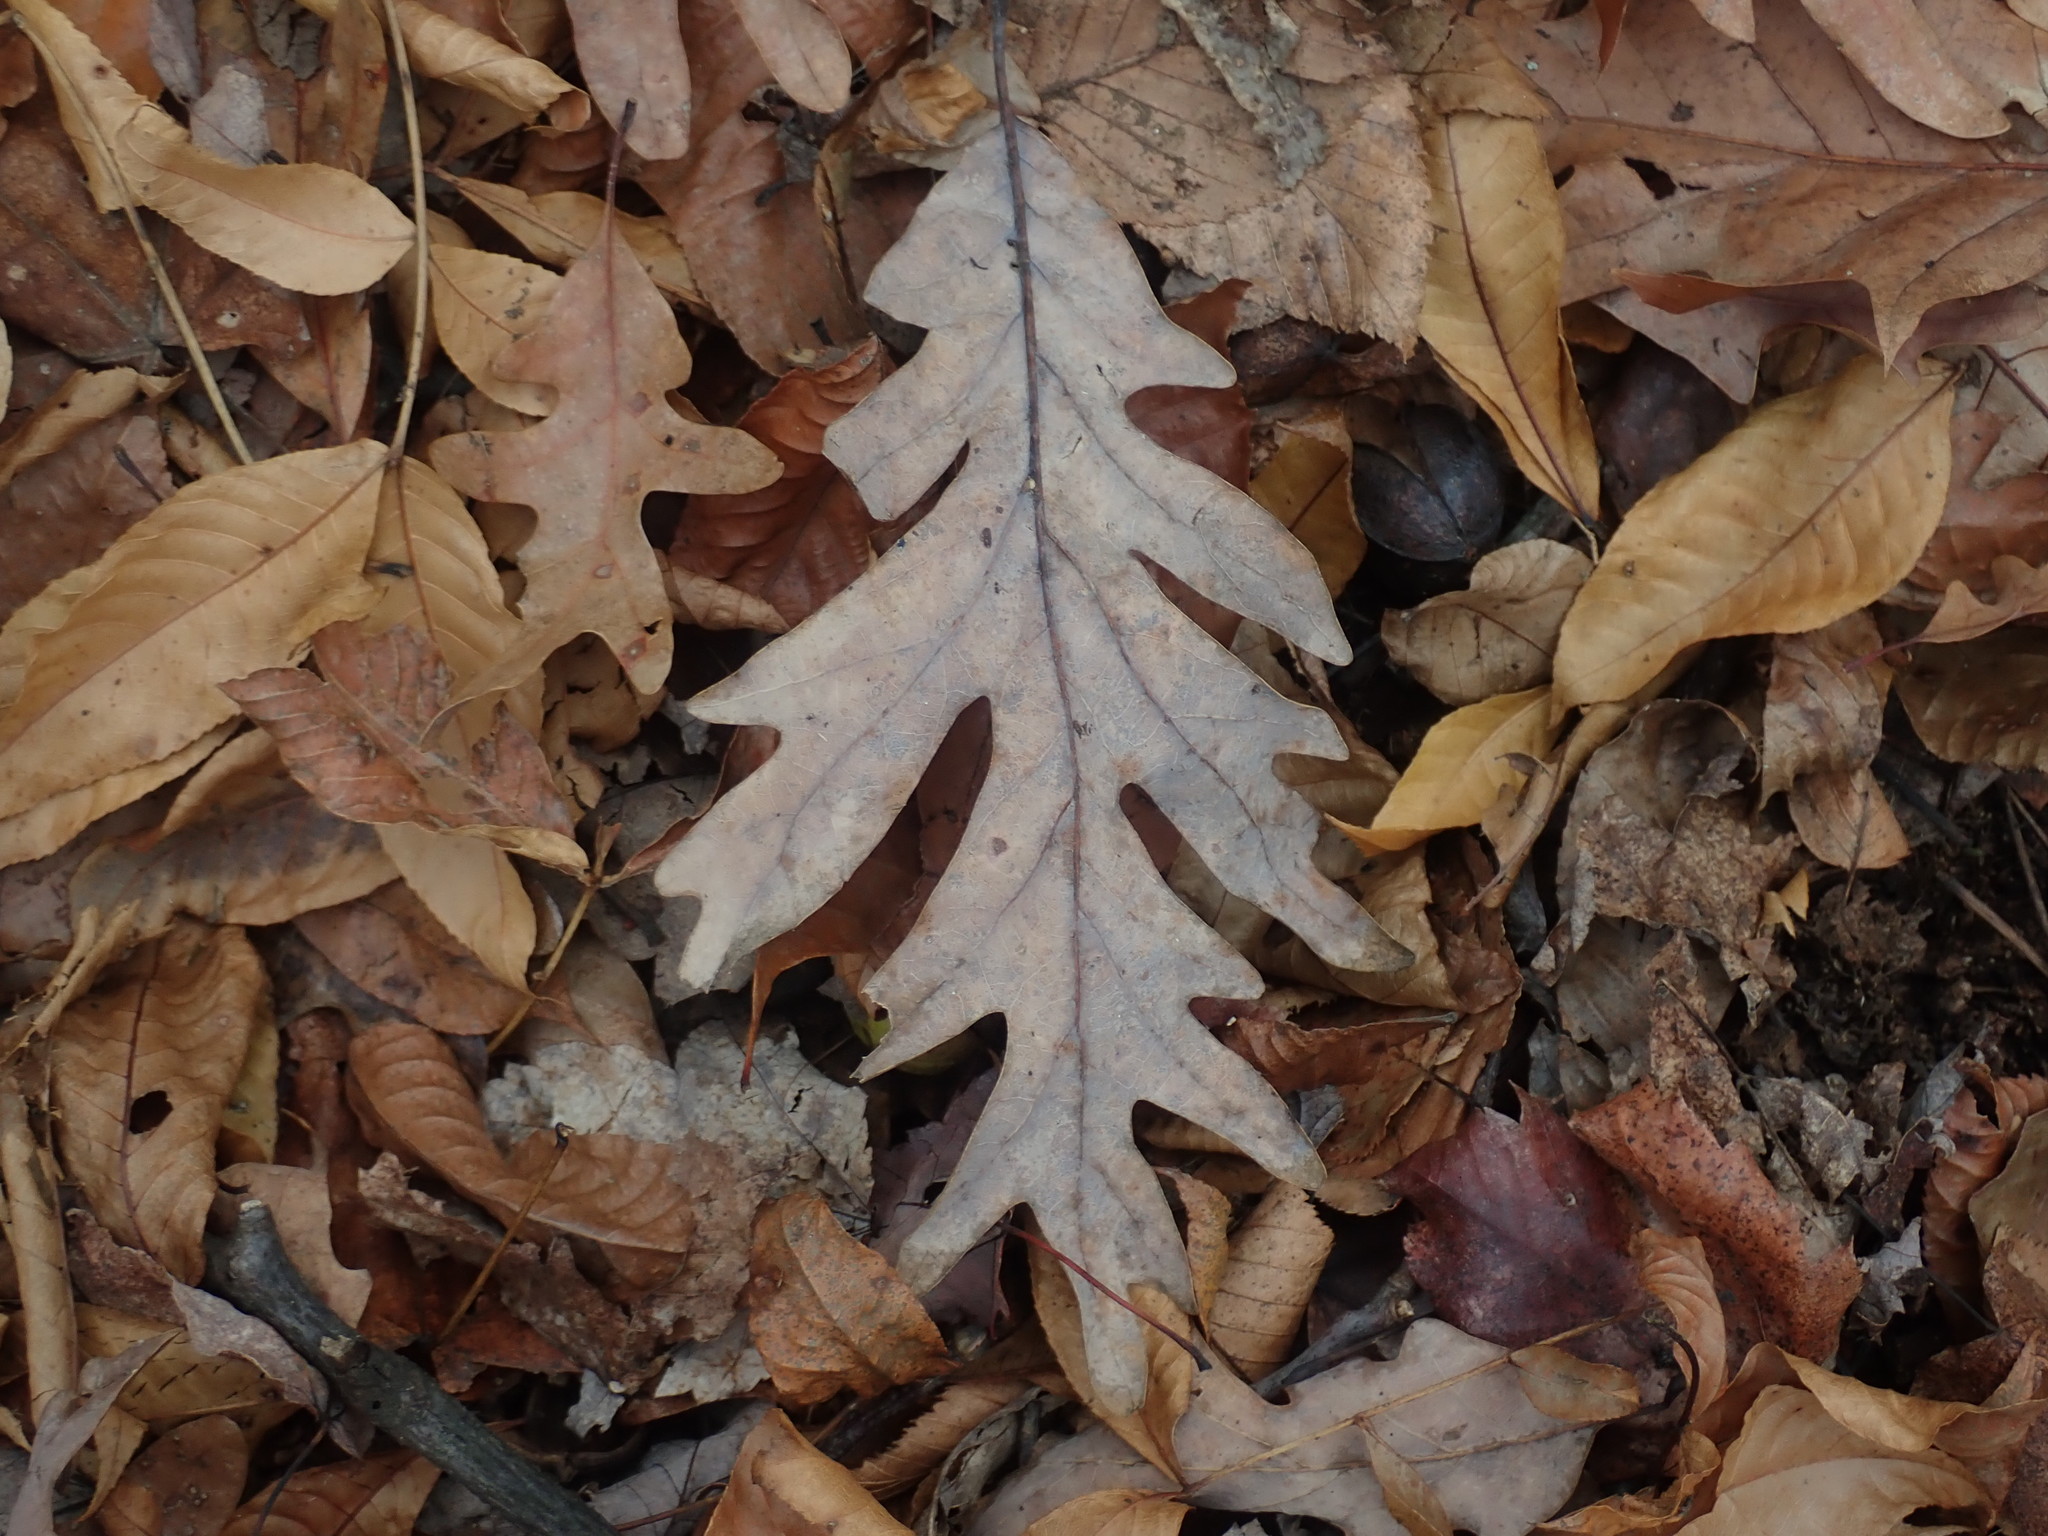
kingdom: Plantae
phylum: Tracheophyta
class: Magnoliopsida
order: Fagales
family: Fagaceae
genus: Quercus
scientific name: Quercus alba
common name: White oak
